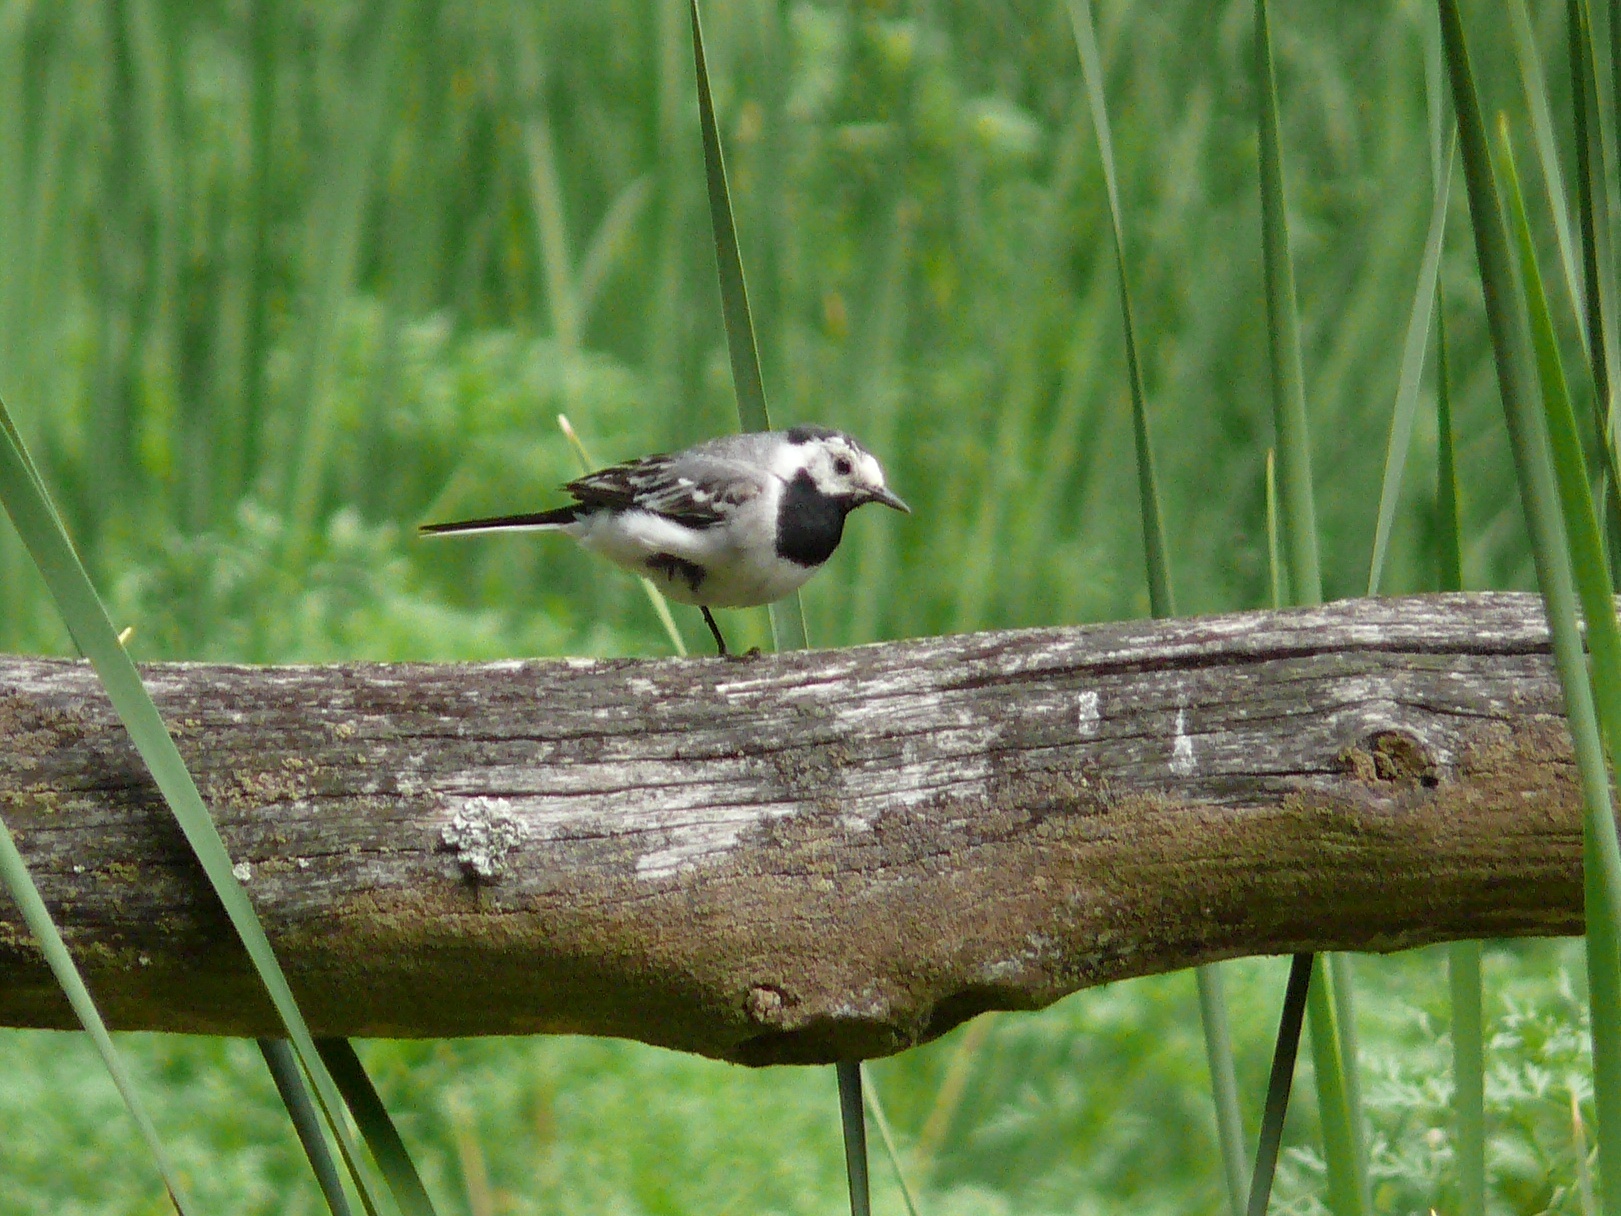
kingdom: Animalia
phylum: Chordata
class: Aves
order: Passeriformes
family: Motacillidae
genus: Motacilla
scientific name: Motacilla alba
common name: White wagtail
